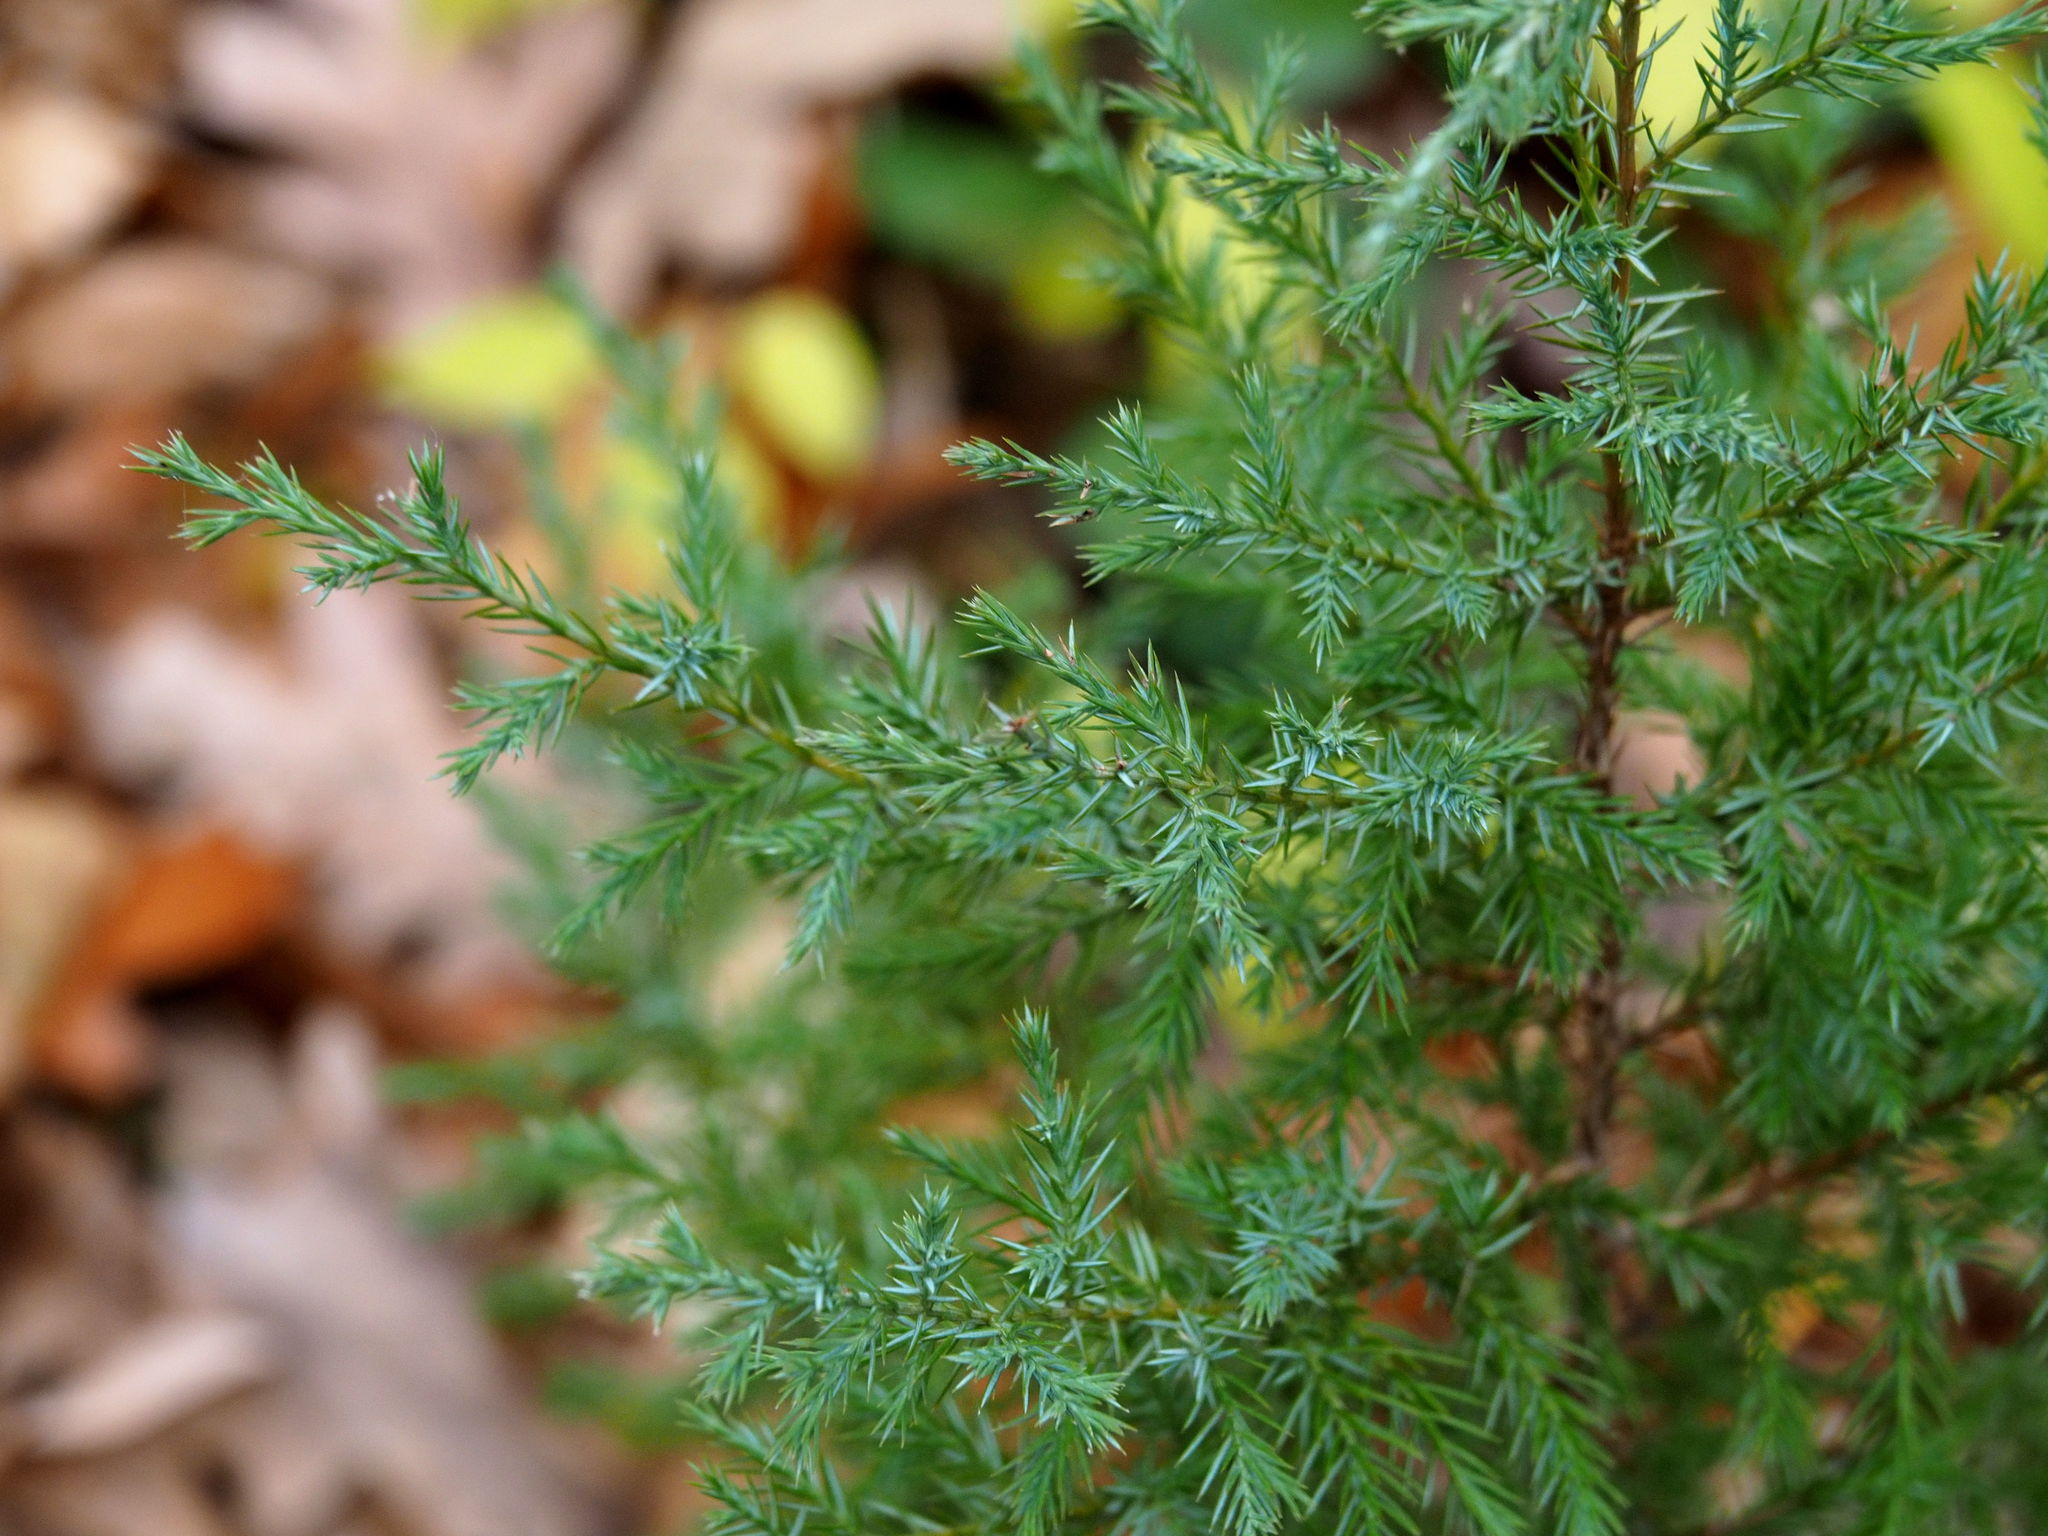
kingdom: Plantae
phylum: Tracheophyta
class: Pinopsida
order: Pinales
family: Cupressaceae
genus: Juniperus
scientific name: Juniperus virginiana
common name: Red juniper
